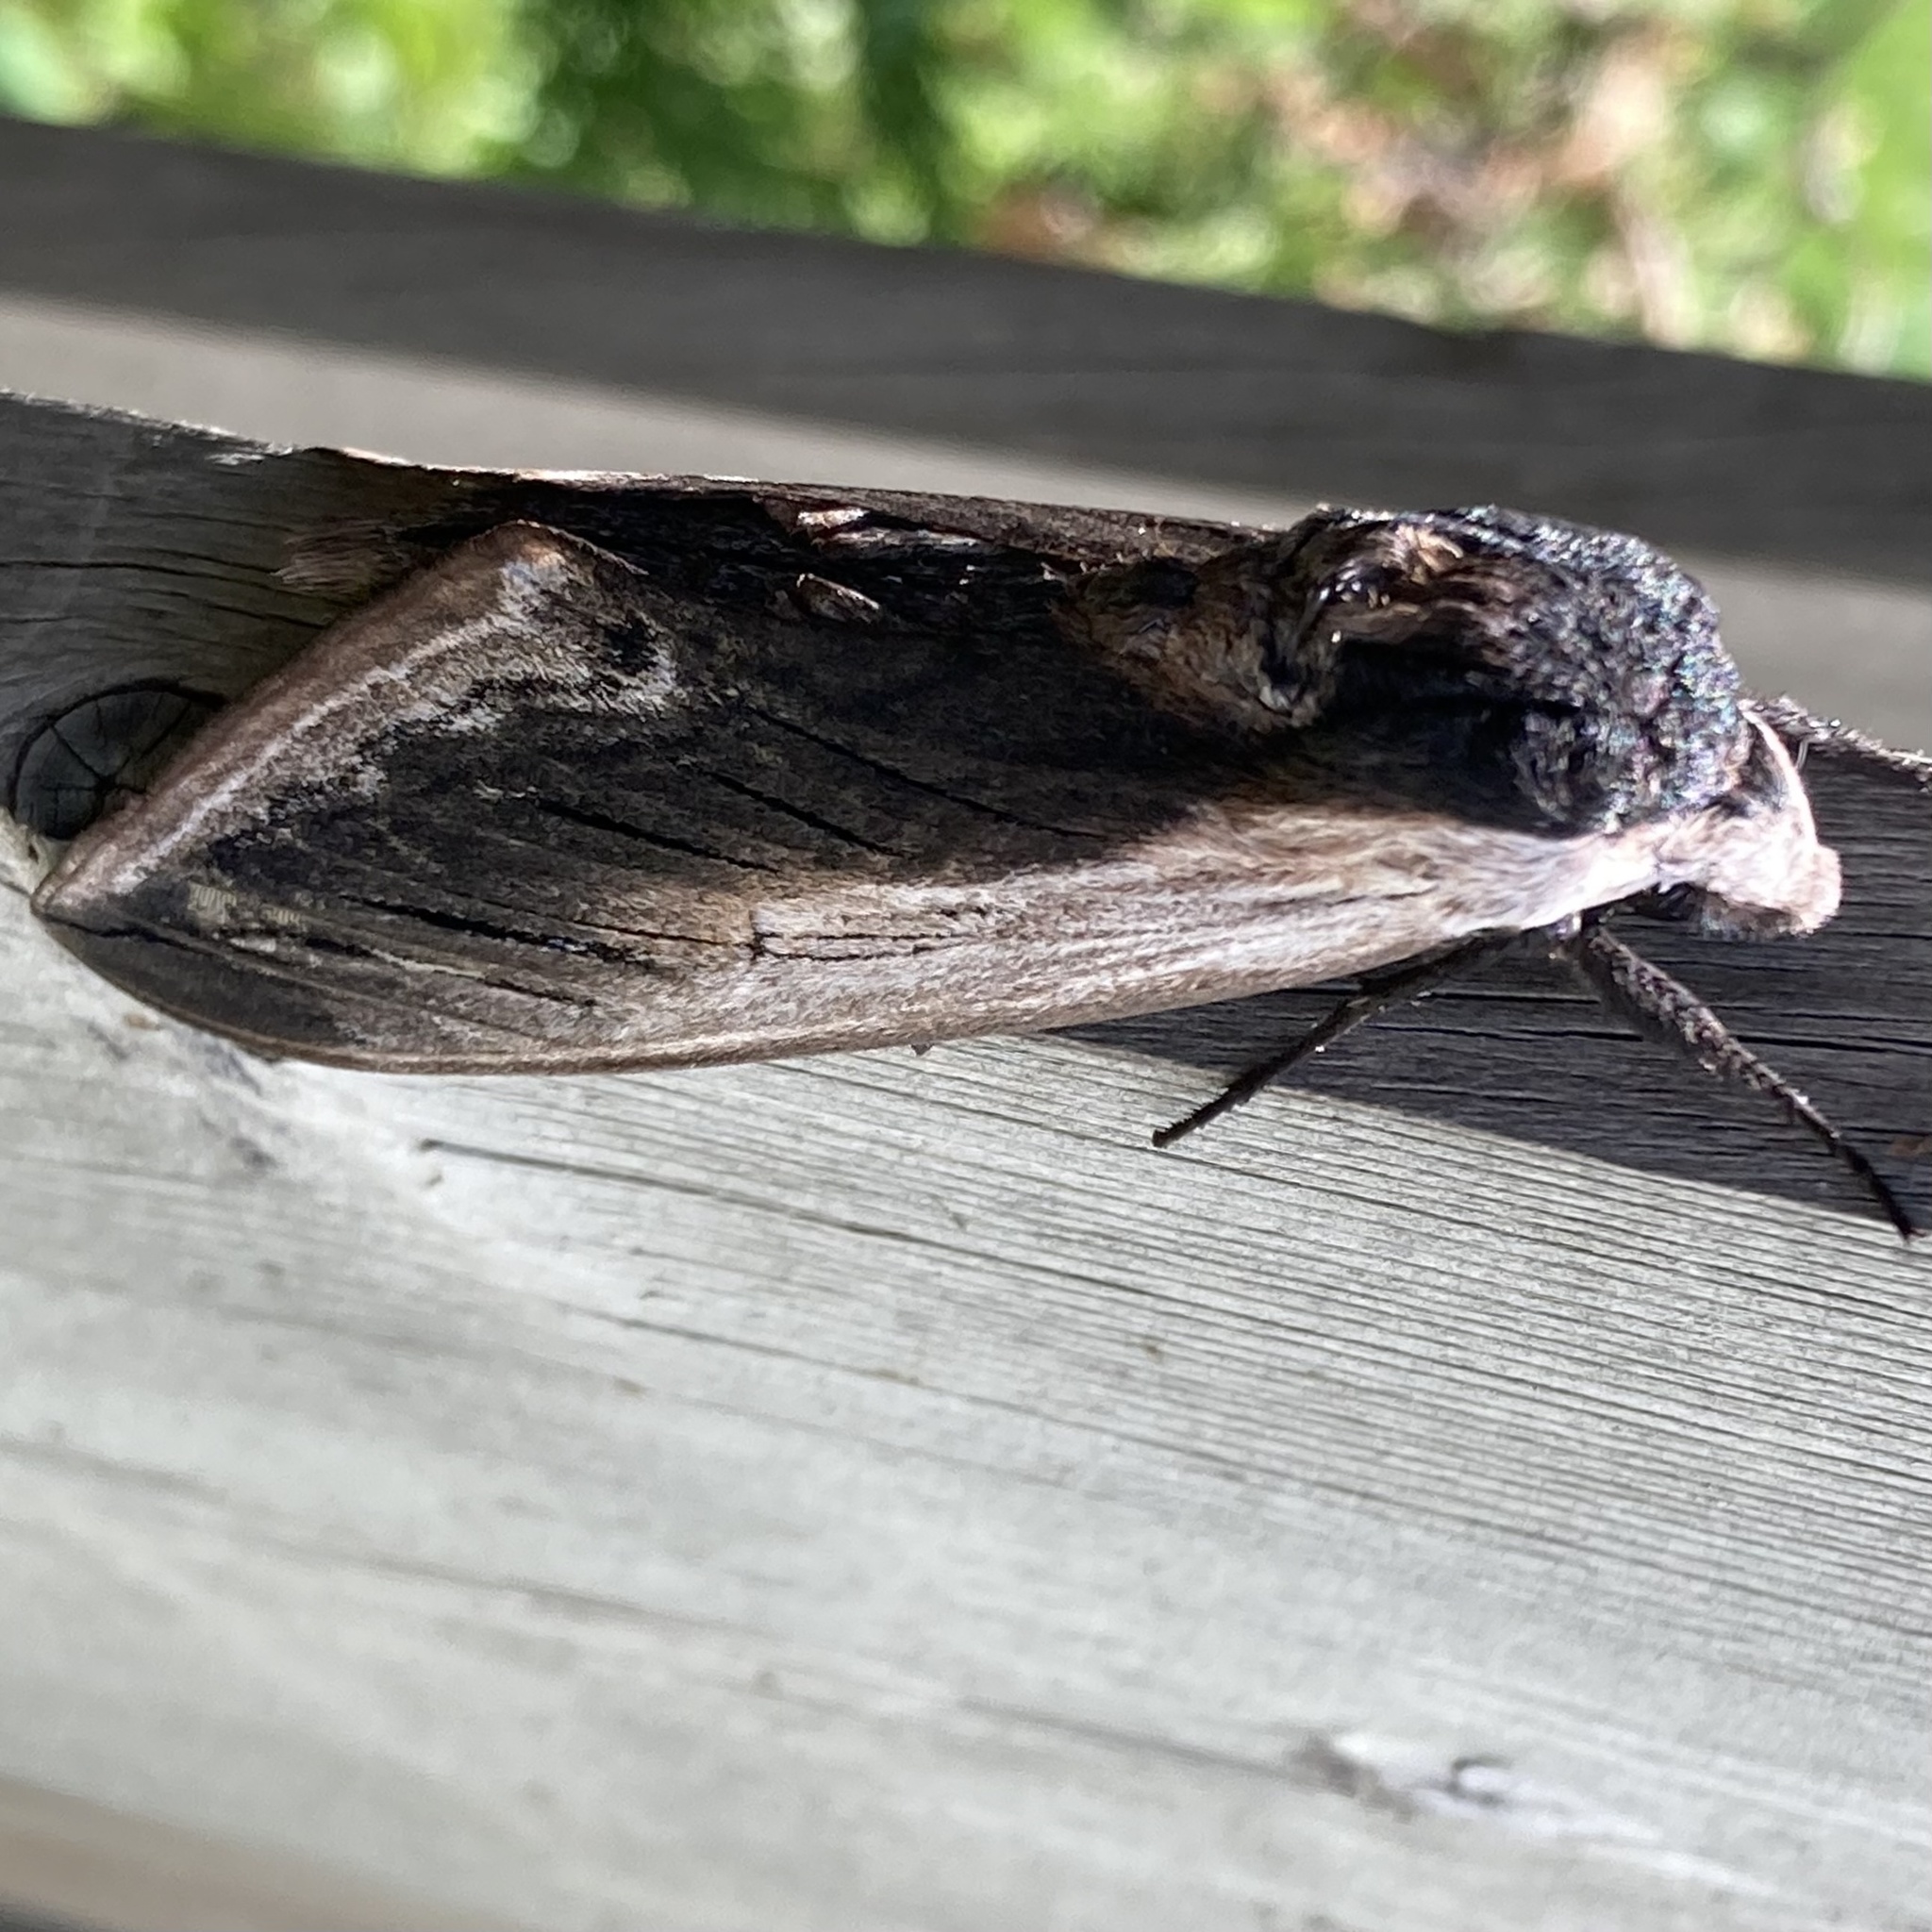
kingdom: Animalia
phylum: Arthropoda
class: Insecta
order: Lepidoptera
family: Sphingidae
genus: Sphinx
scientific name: Sphinx drupiferarum
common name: Wild cherry sphinx
